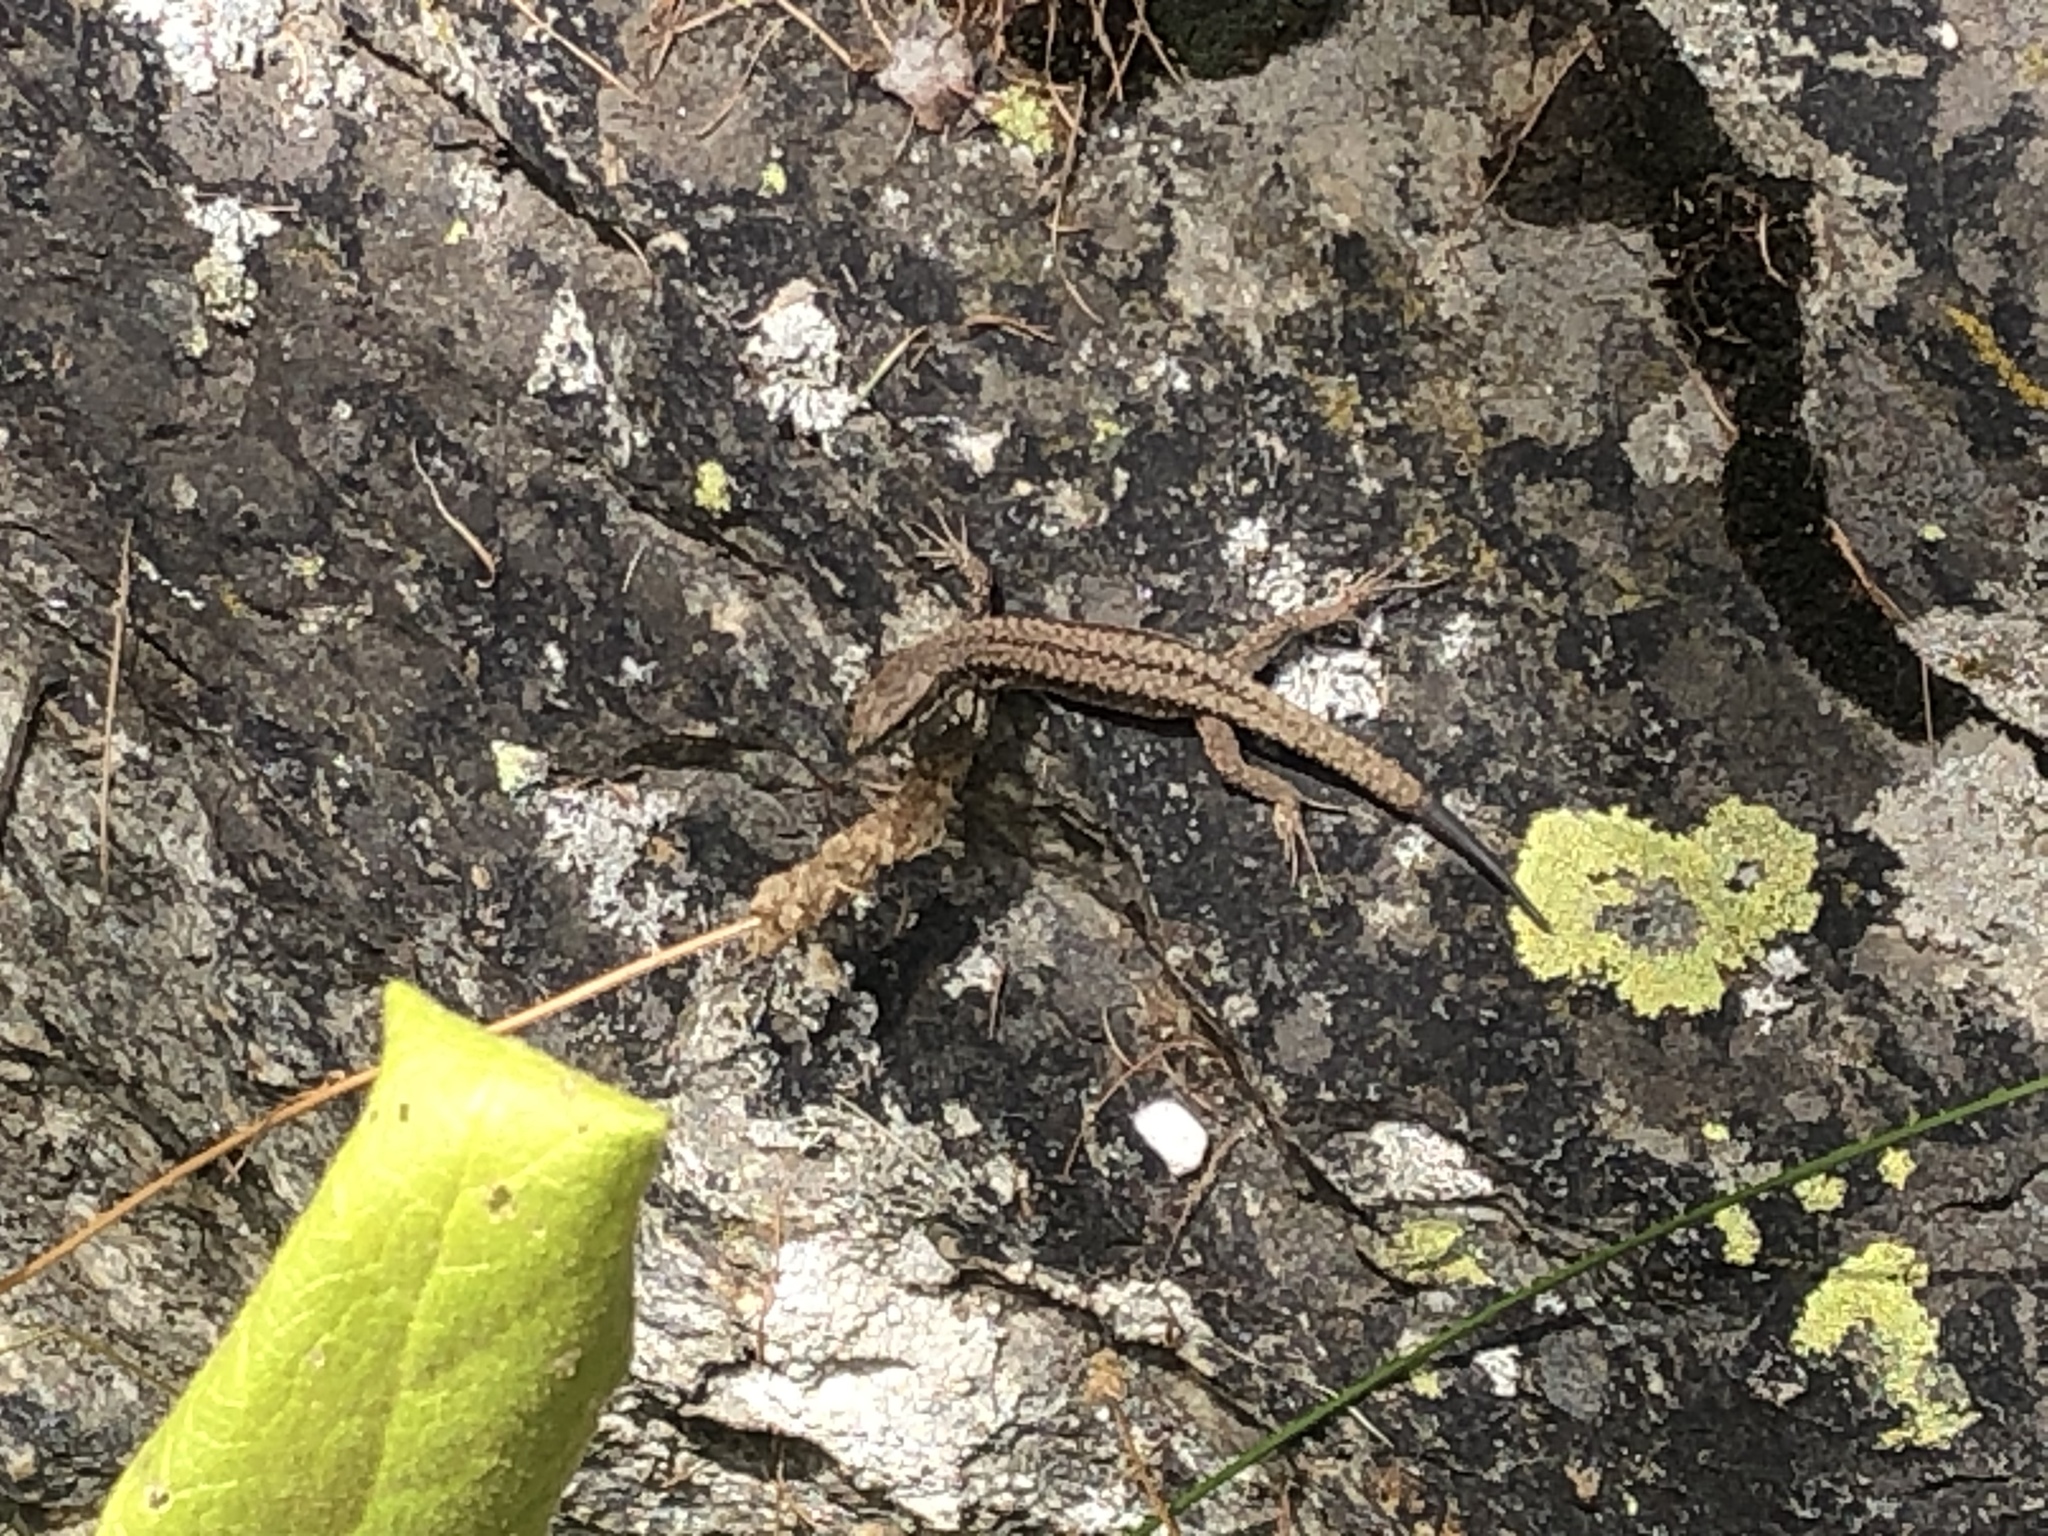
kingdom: Animalia
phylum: Chordata
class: Squamata
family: Lacertidae
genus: Podarcis
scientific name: Podarcis muralis
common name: Common wall lizard
